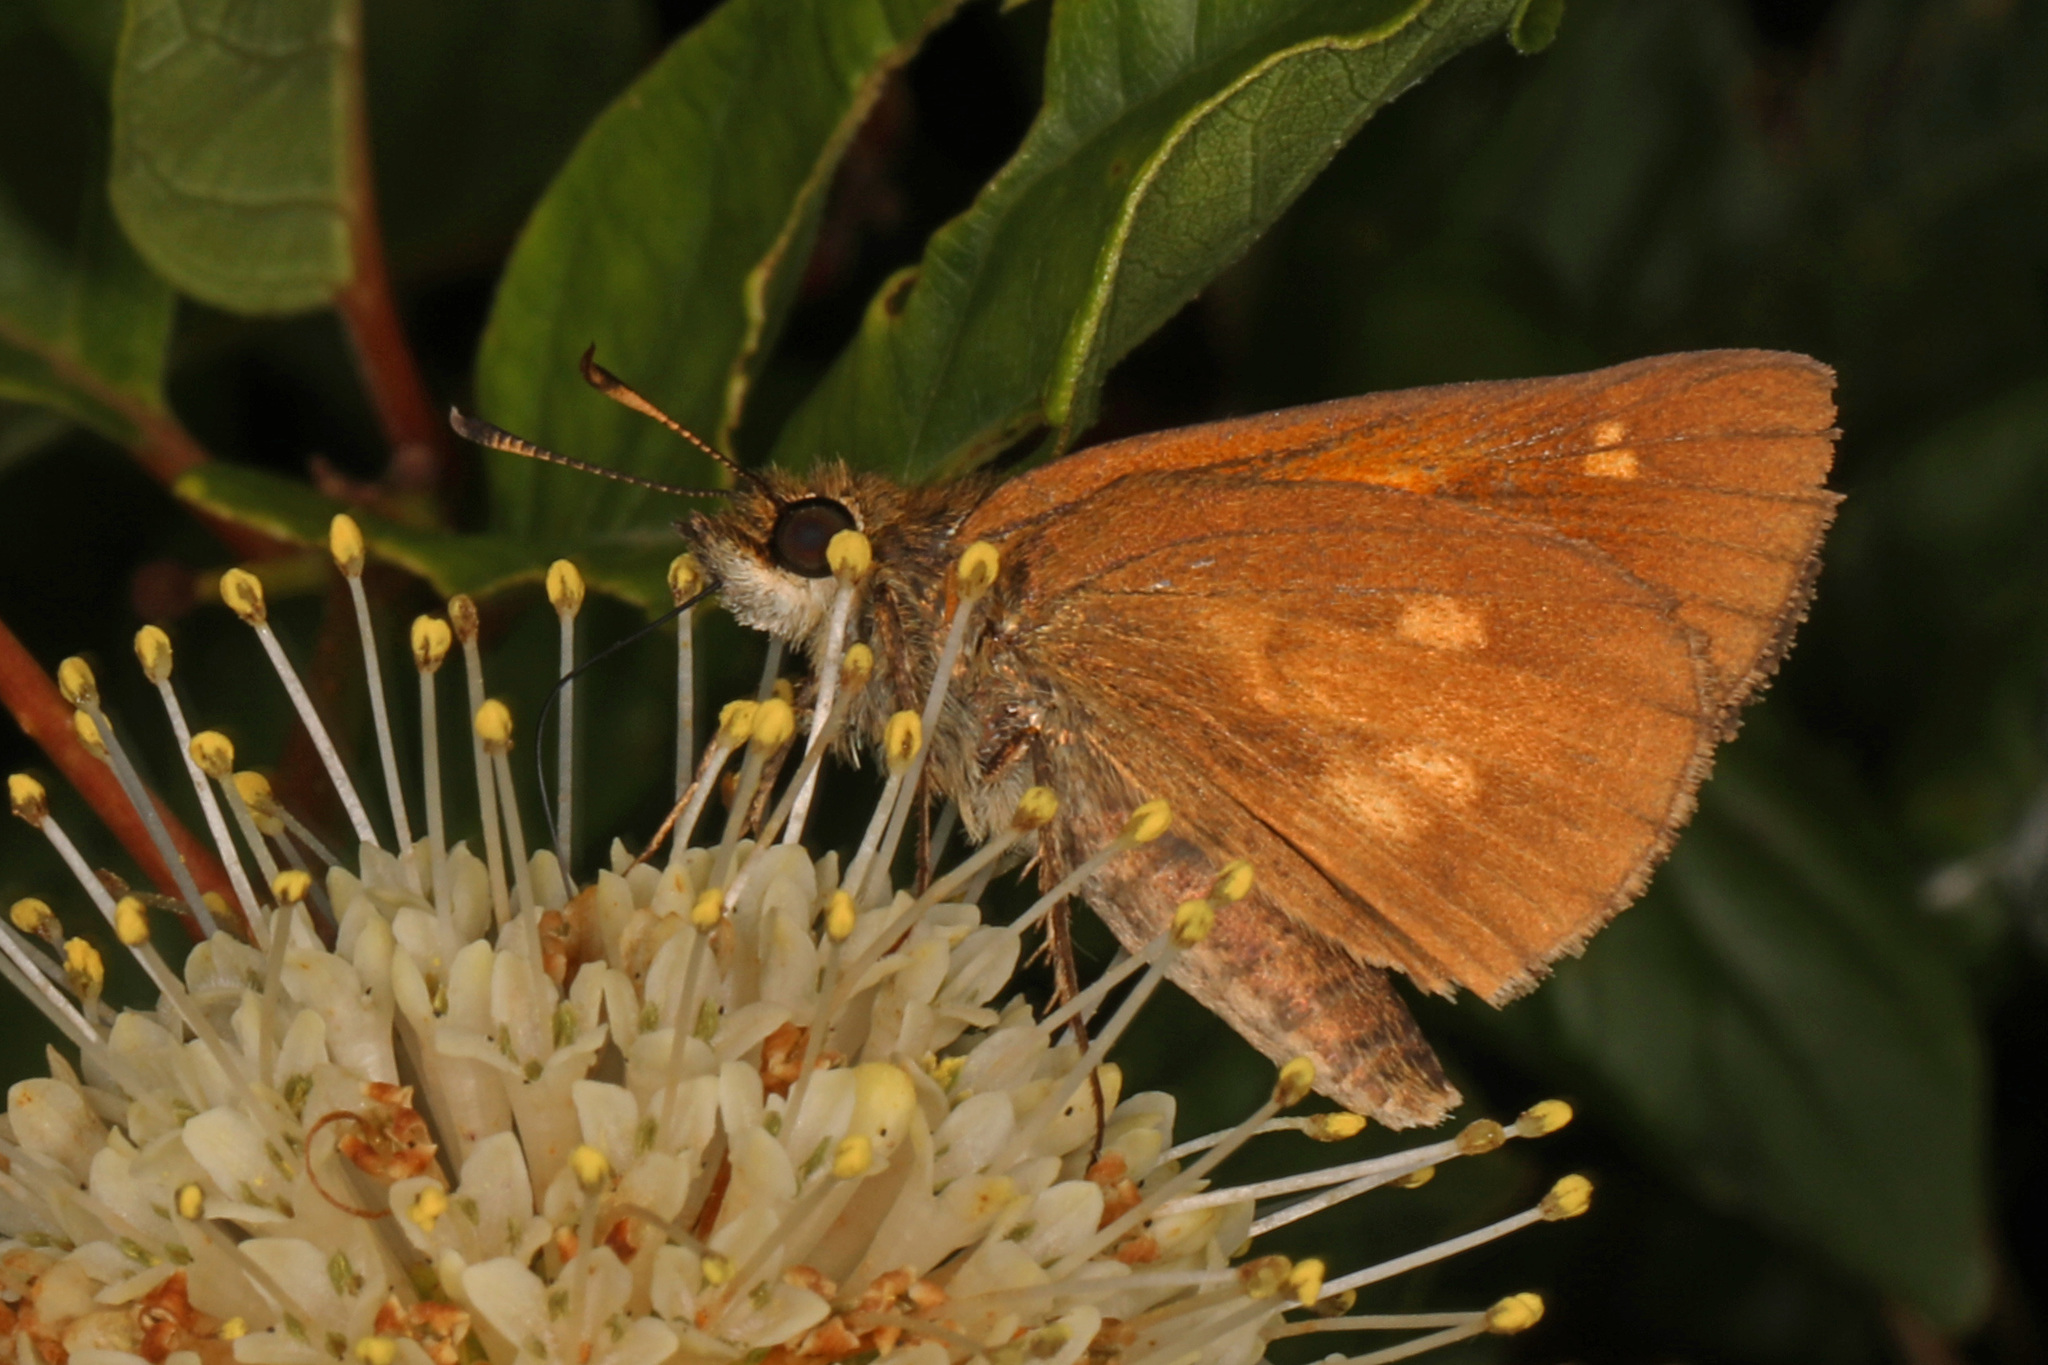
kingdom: Animalia
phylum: Arthropoda
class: Insecta
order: Lepidoptera
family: Hesperiidae
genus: Poanes
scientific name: Poanes viator
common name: Broad-winged skipper
